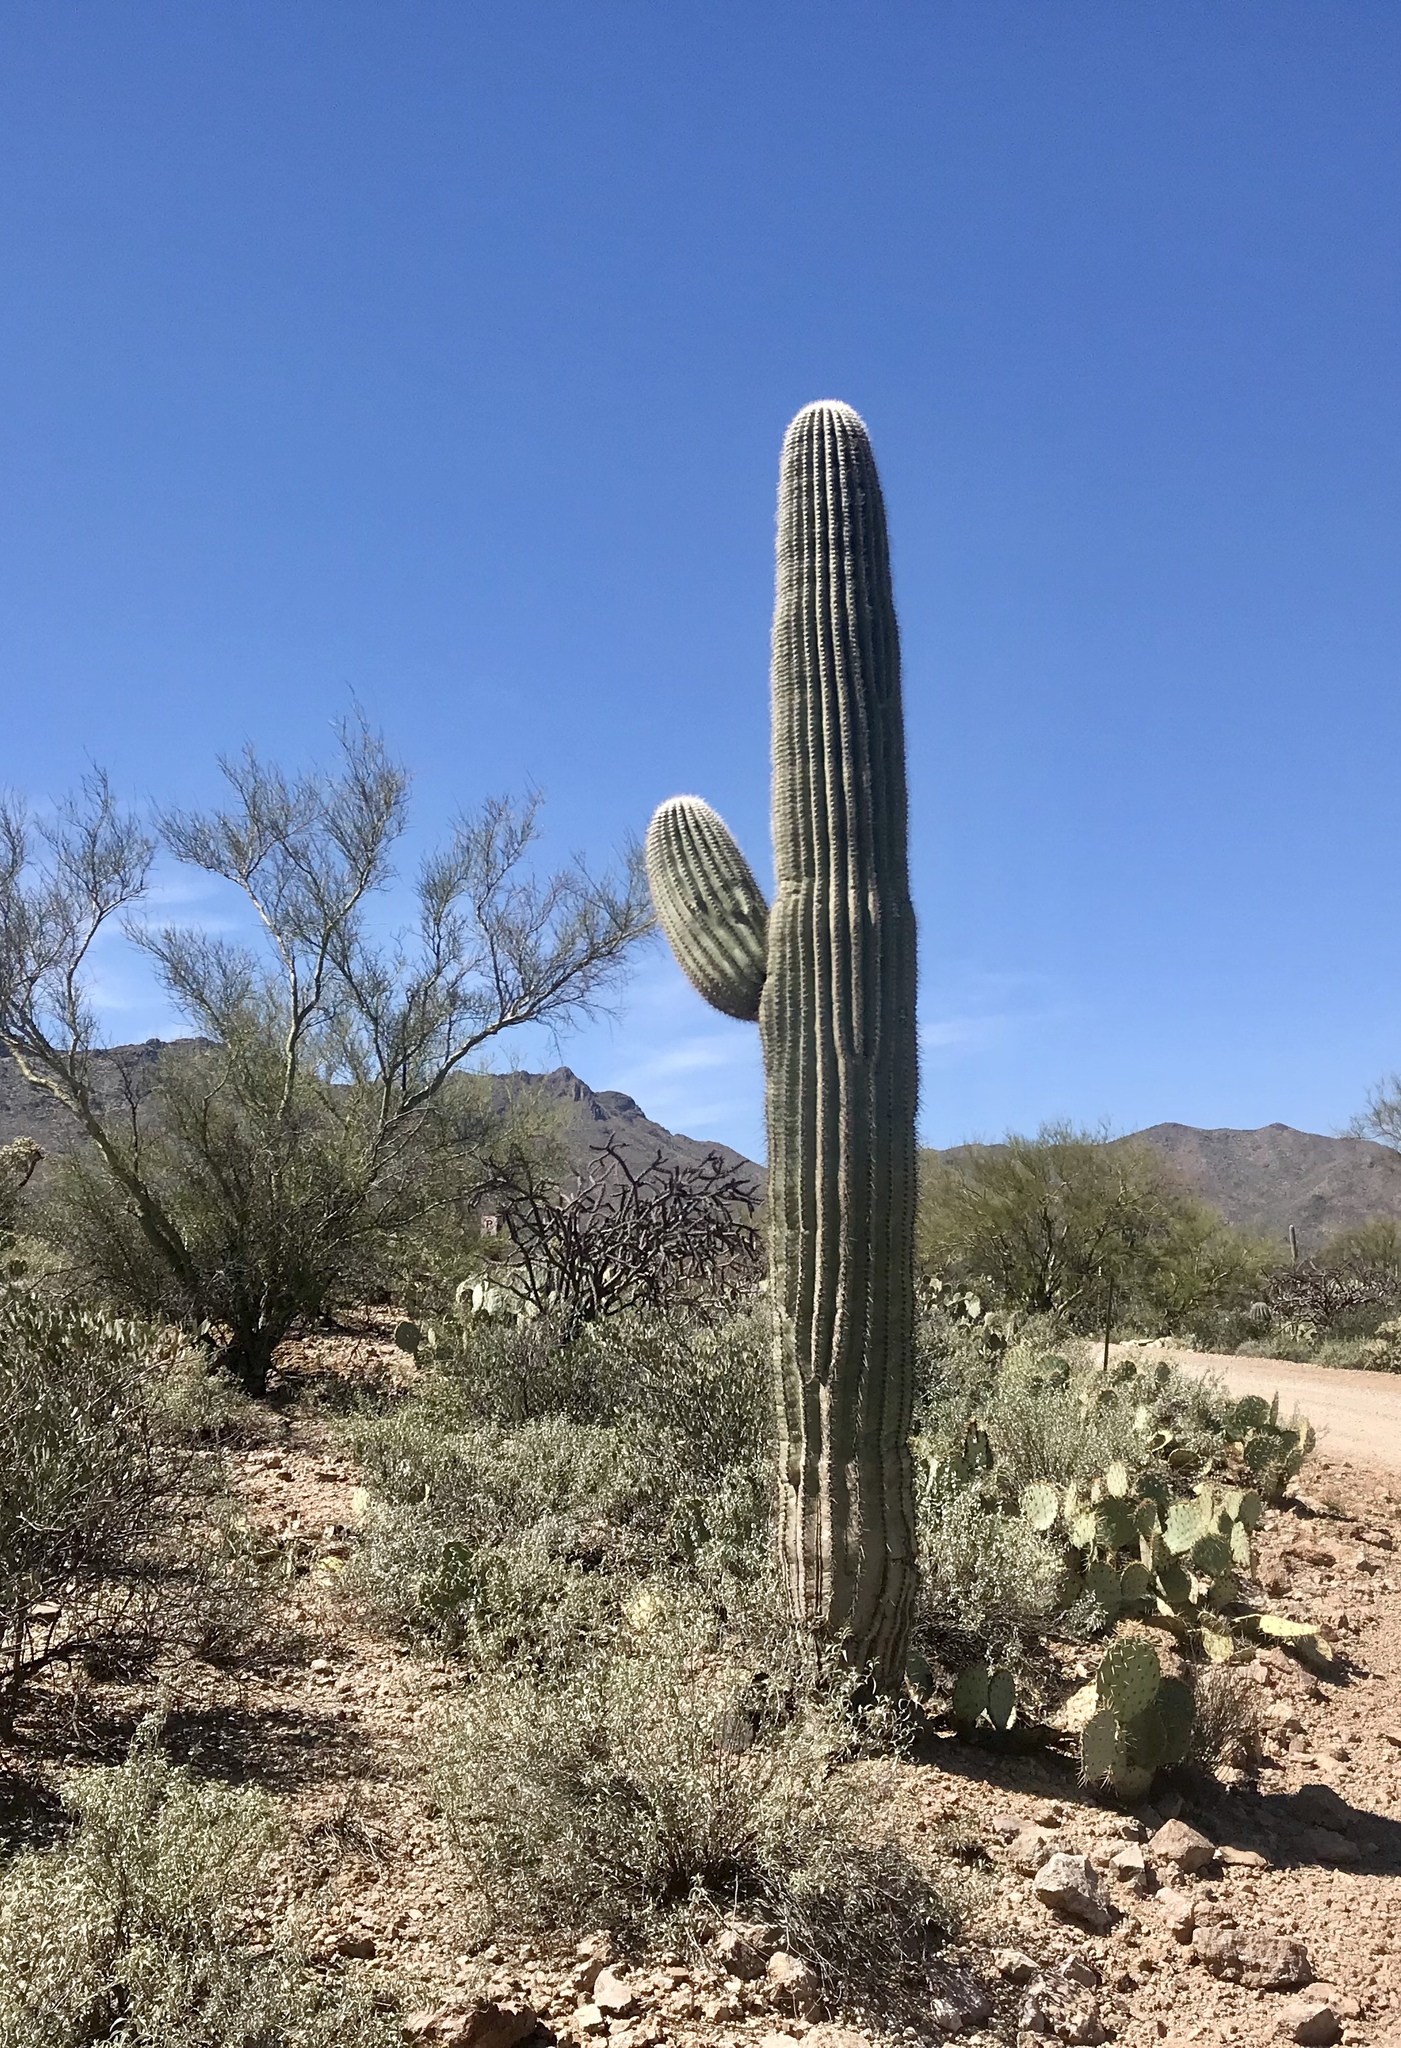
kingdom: Plantae
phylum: Tracheophyta
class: Magnoliopsida
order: Caryophyllales
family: Cactaceae
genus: Carnegiea
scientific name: Carnegiea gigantea
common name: Saguaro
